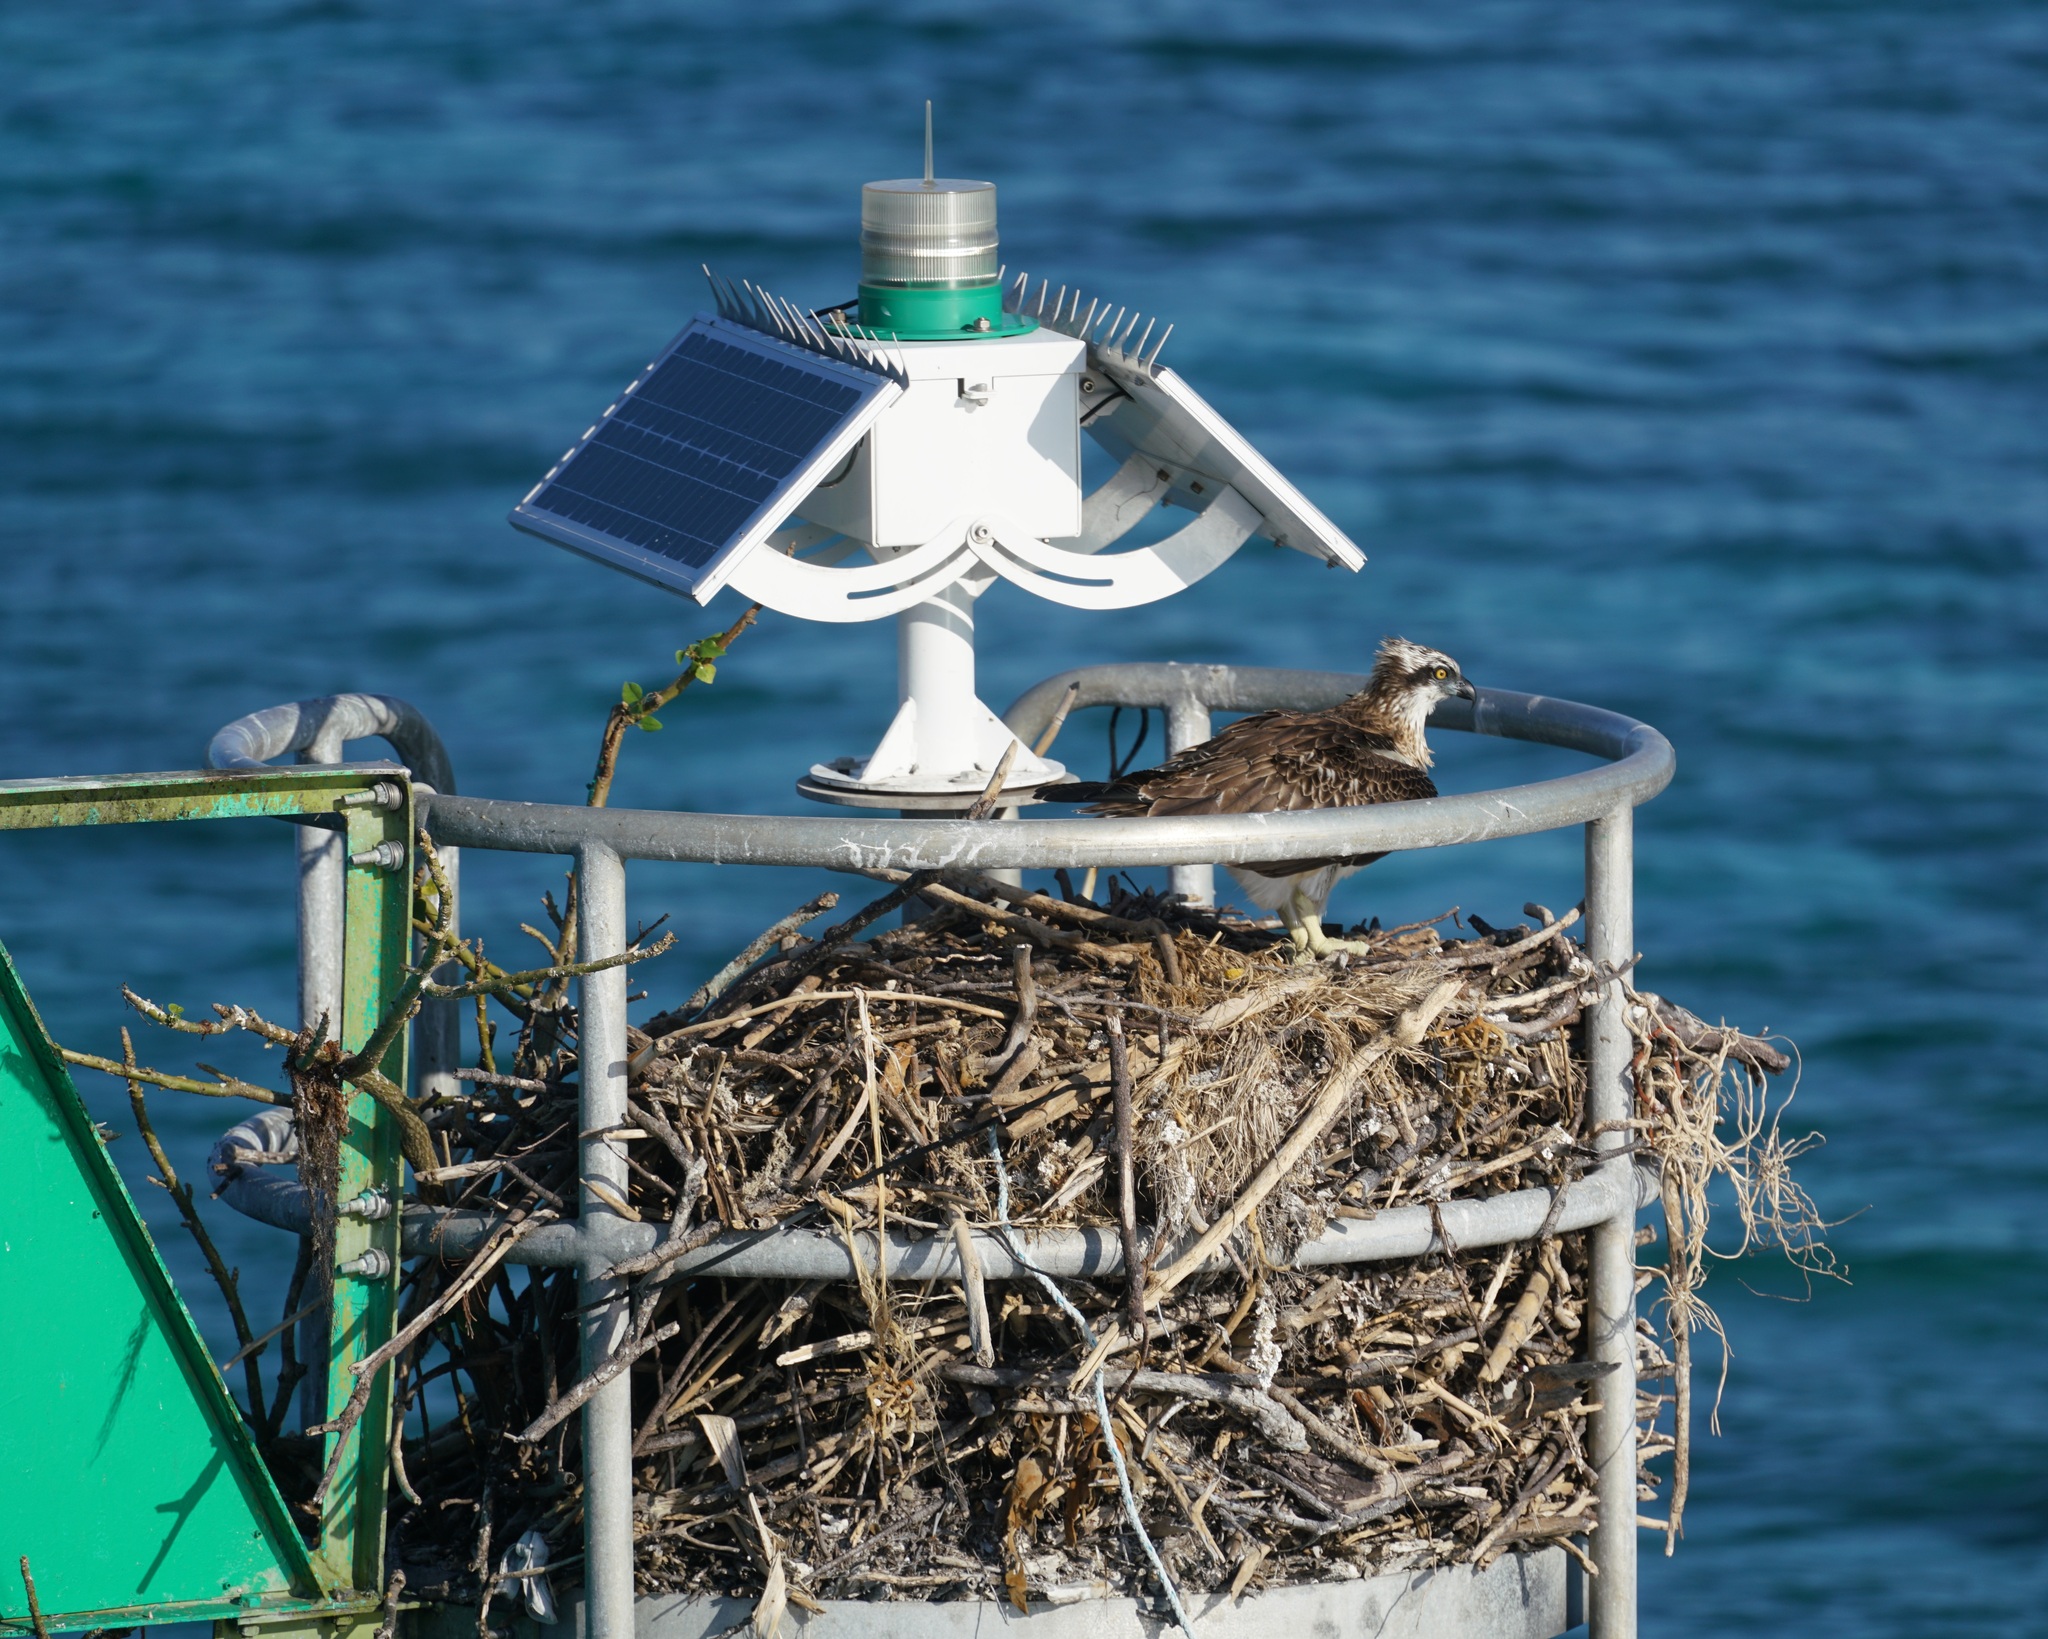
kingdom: Animalia
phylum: Chordata
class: Aves
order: Accipitriformes
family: Pandionidae
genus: Pandion
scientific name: Pandion haliaetus
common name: Osprey
